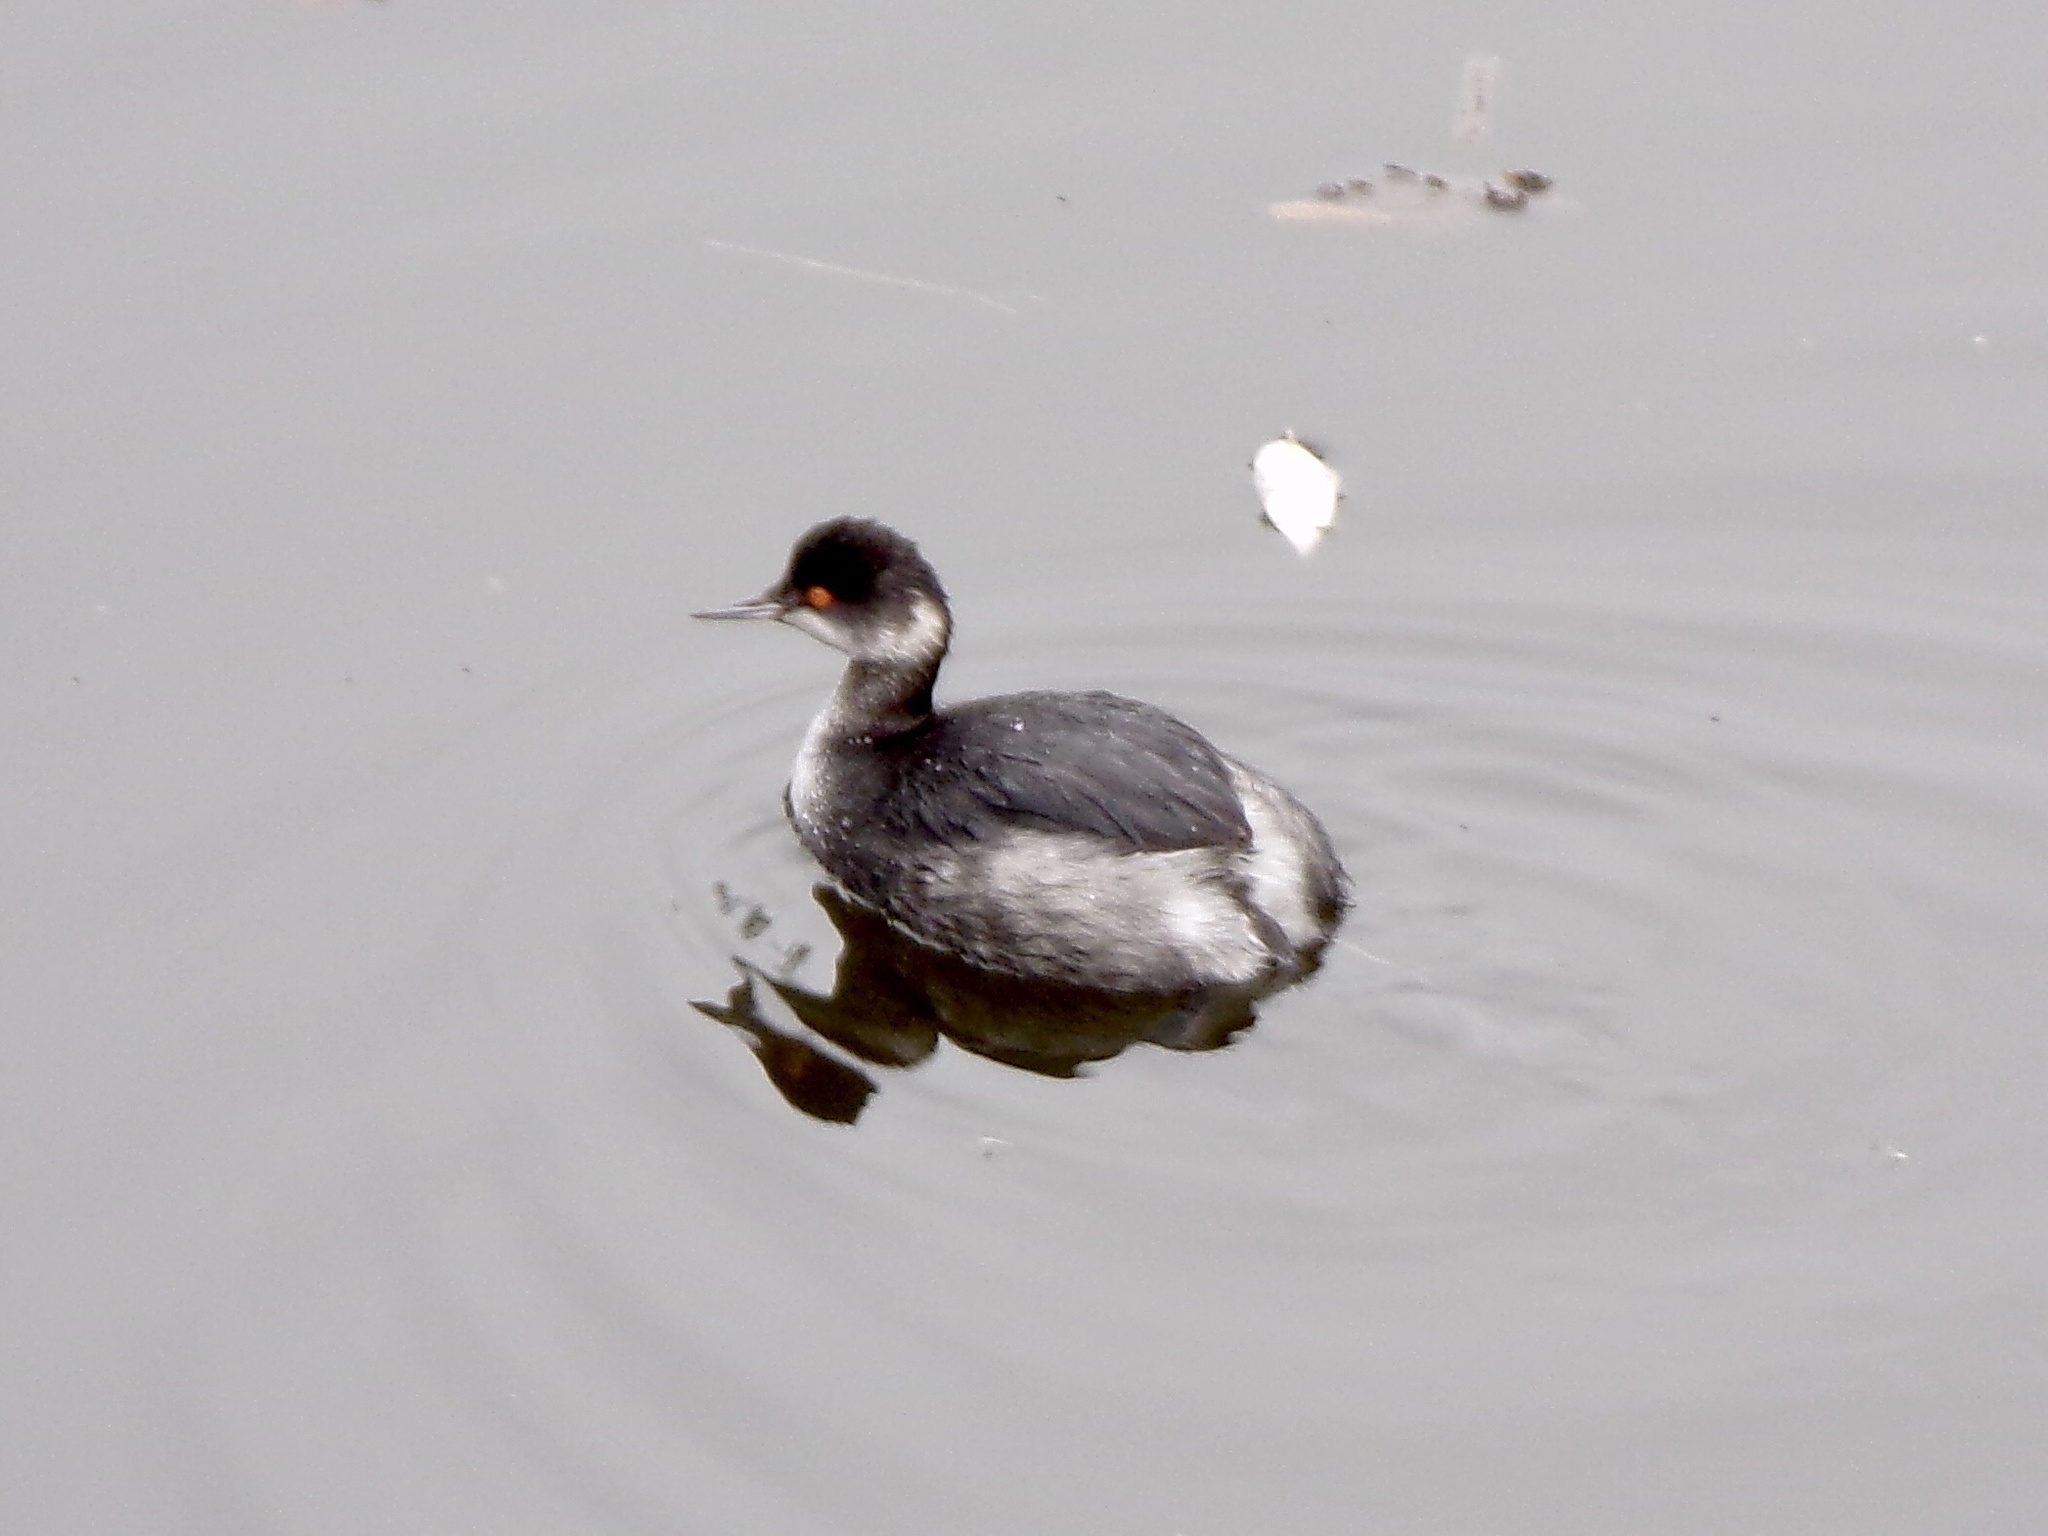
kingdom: Animalia
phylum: Chordata
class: Aves
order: Podicipediformes
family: Podicipedidae
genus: Podiceps
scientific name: Podiceps nigricollis
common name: Black-necked grebe
